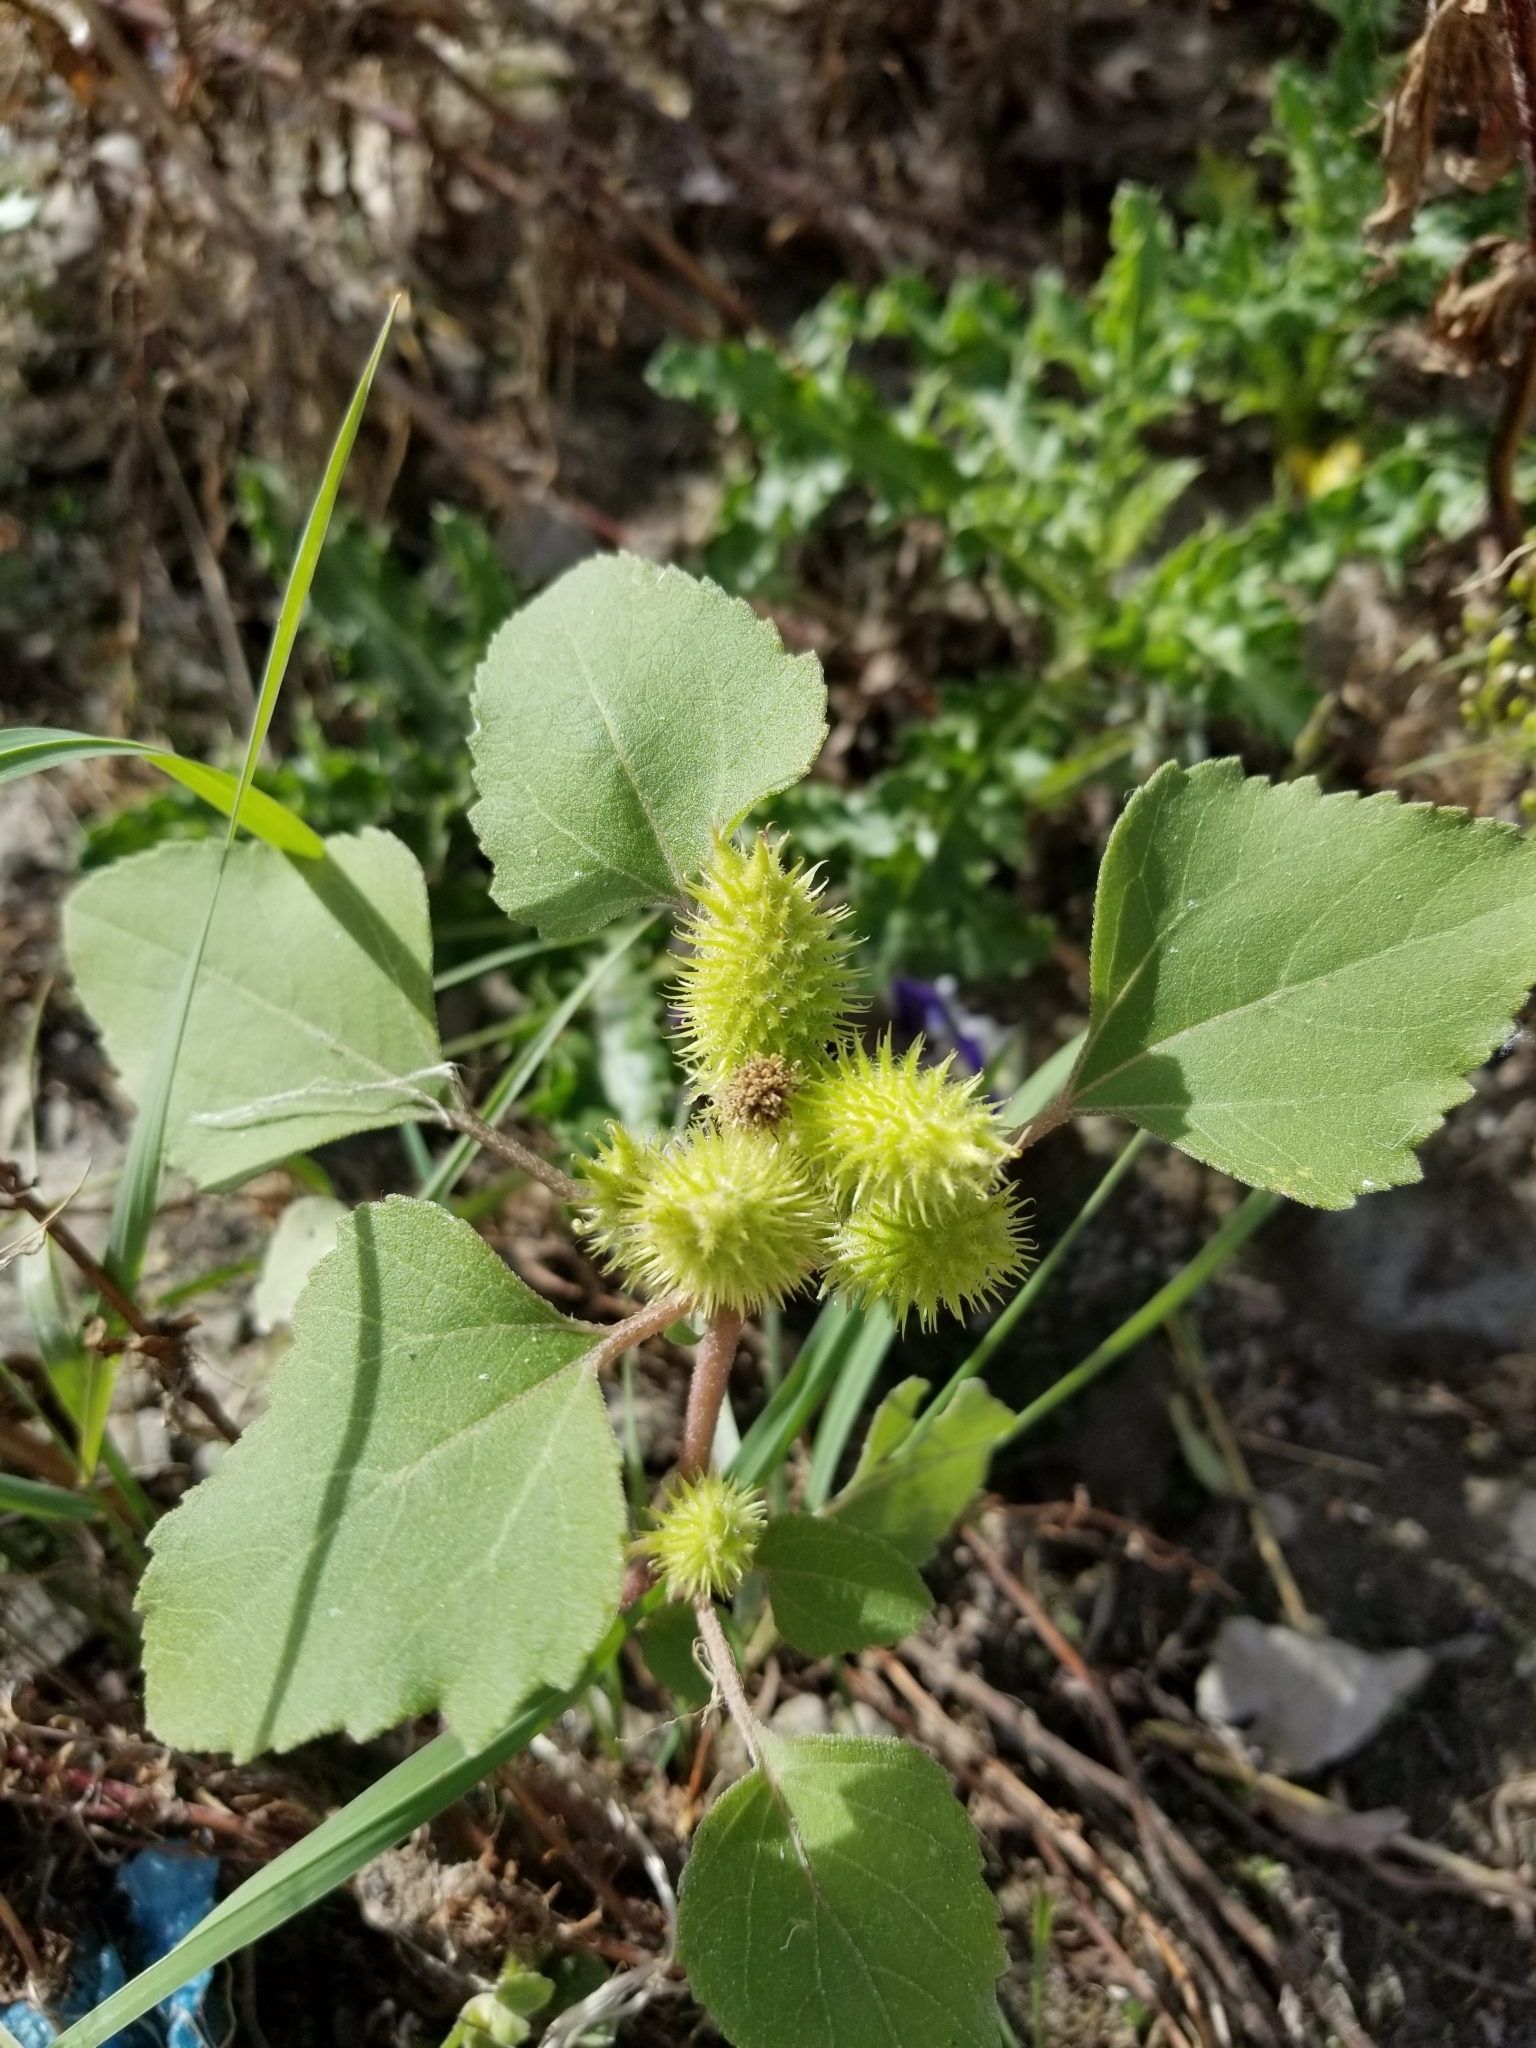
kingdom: Plantae
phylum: Tracheophyta
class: Magnoliopsida
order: Asterales
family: Asteraceae
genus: Xanthium
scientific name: Xanthium strumarium
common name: Rough cocklebur
